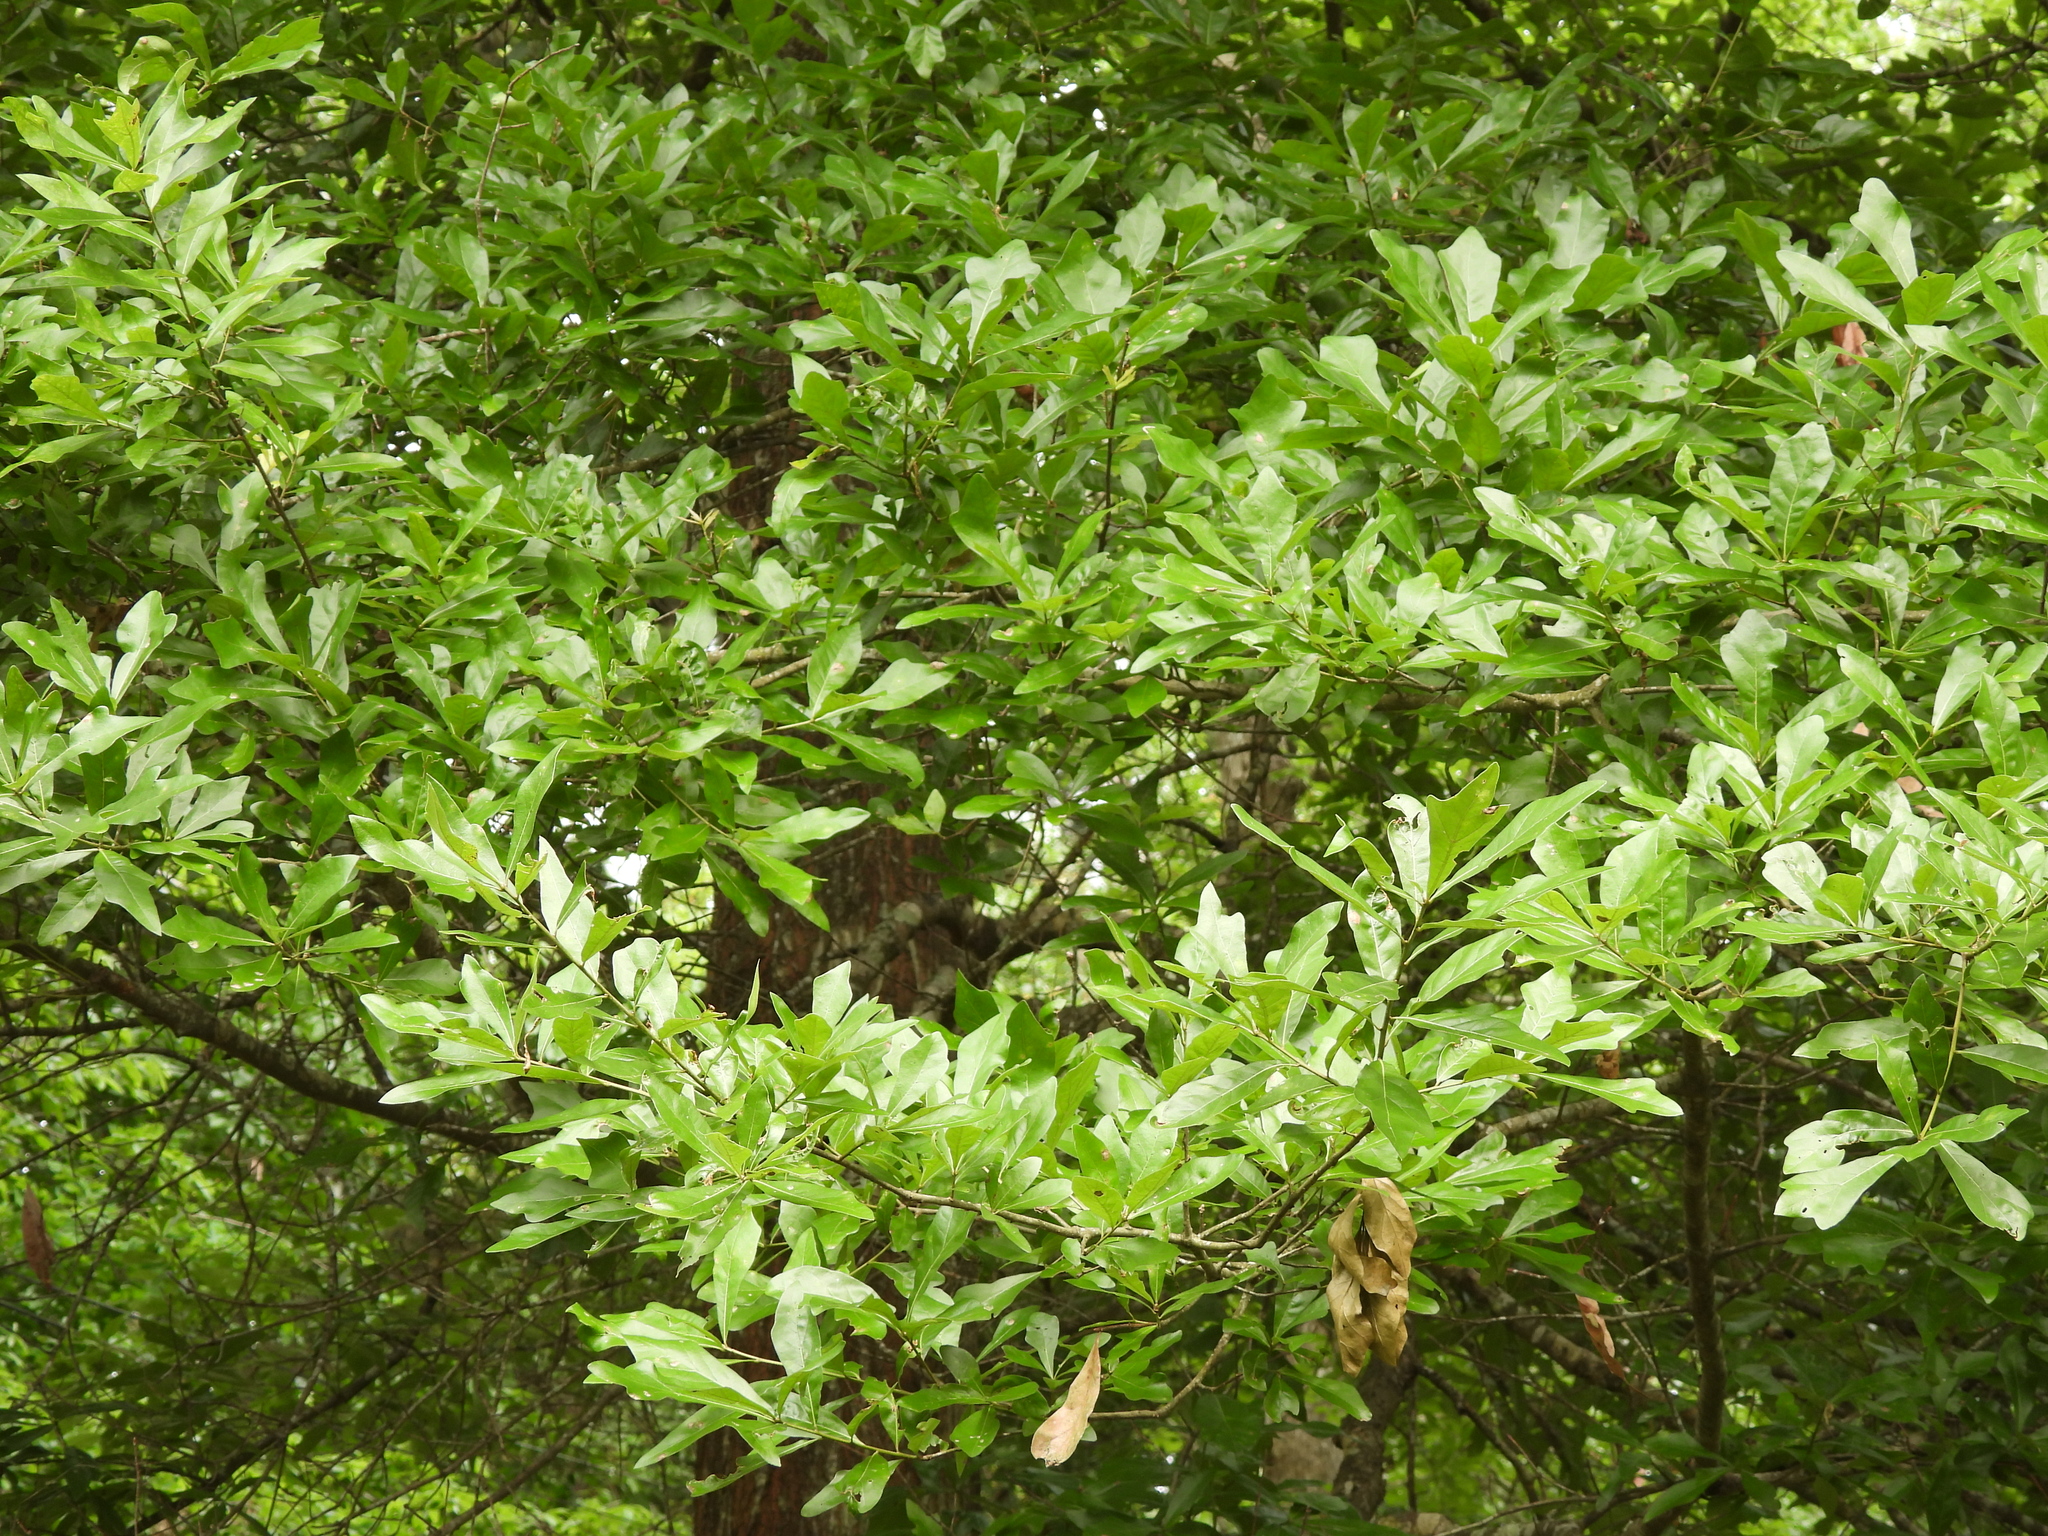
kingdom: Plantae
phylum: Tracheophyta
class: Magnoliopsida
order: Fagales
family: Fagaceae
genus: Quercus
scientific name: Quercus nigra
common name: Water oak
